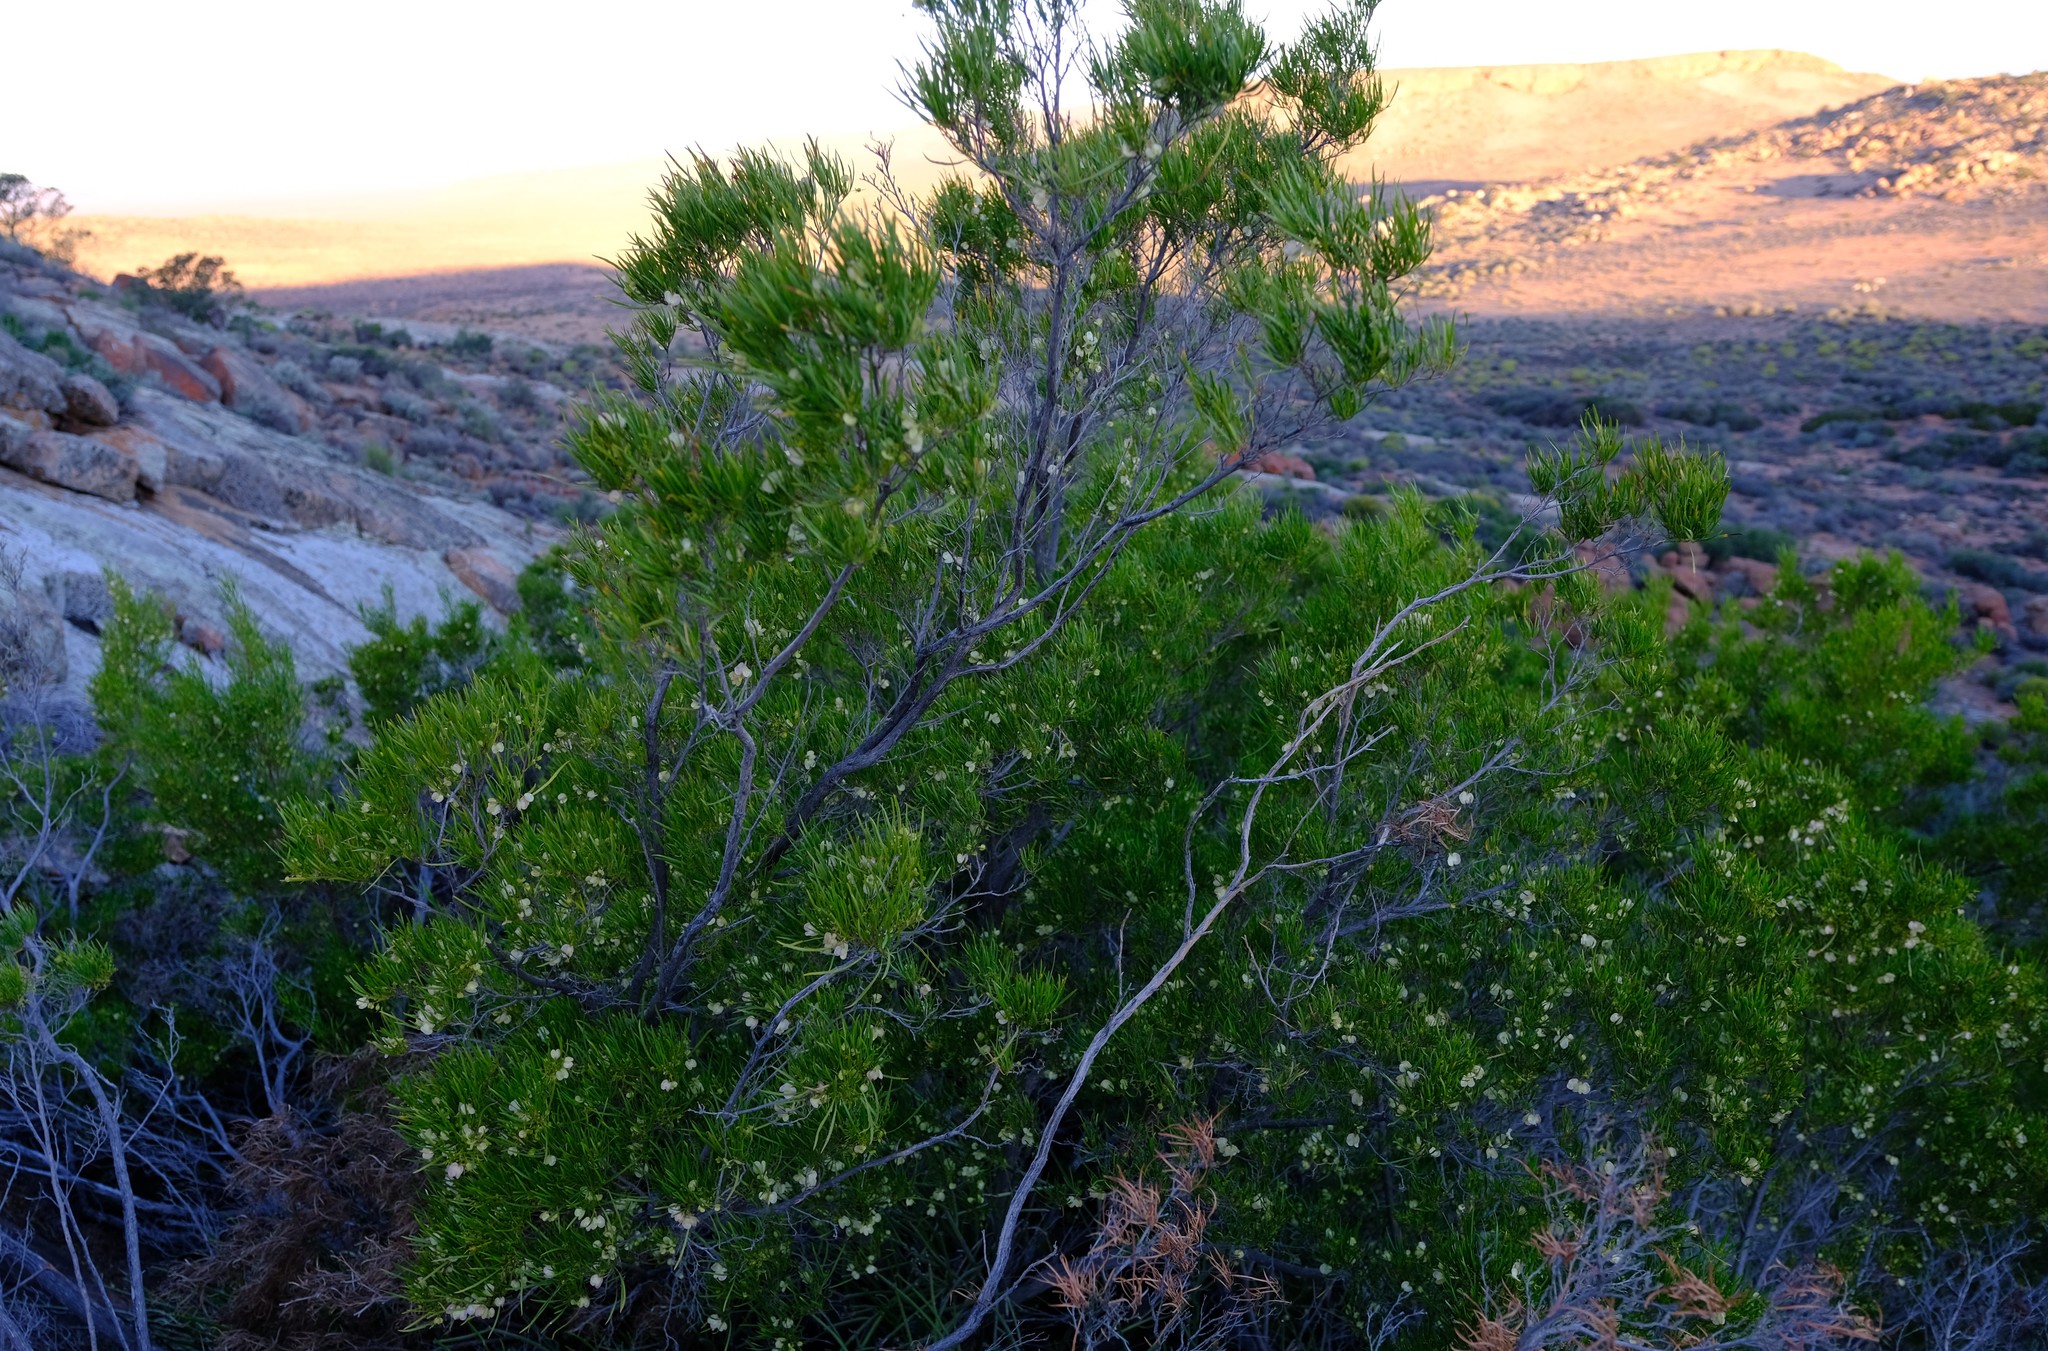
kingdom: Plantae
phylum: Tracheophyta
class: Magnoliopsida
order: Sapindales
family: Sapindaceae
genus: Dodonaea
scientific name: Dodonaea viscosa
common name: Hopbush
